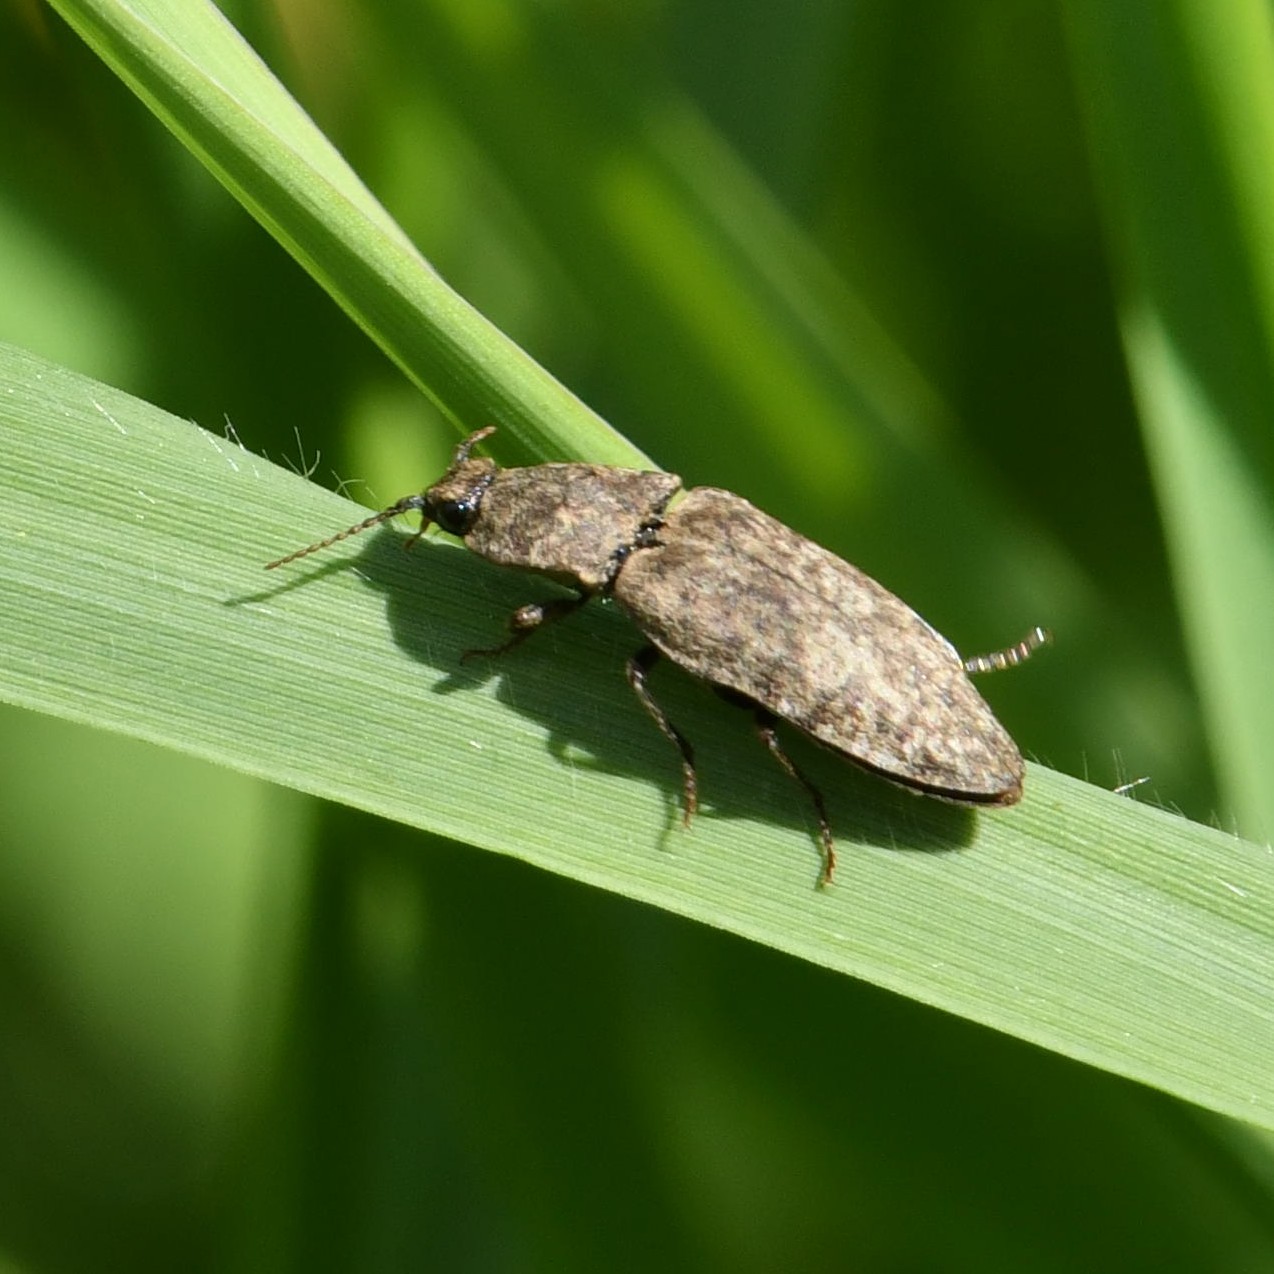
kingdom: Animalia
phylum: Arthropoda
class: Insecta
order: Lepidoptera
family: Nymphalidae
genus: Coenonympha
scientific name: Coenonympha pamphilus
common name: Small heath
